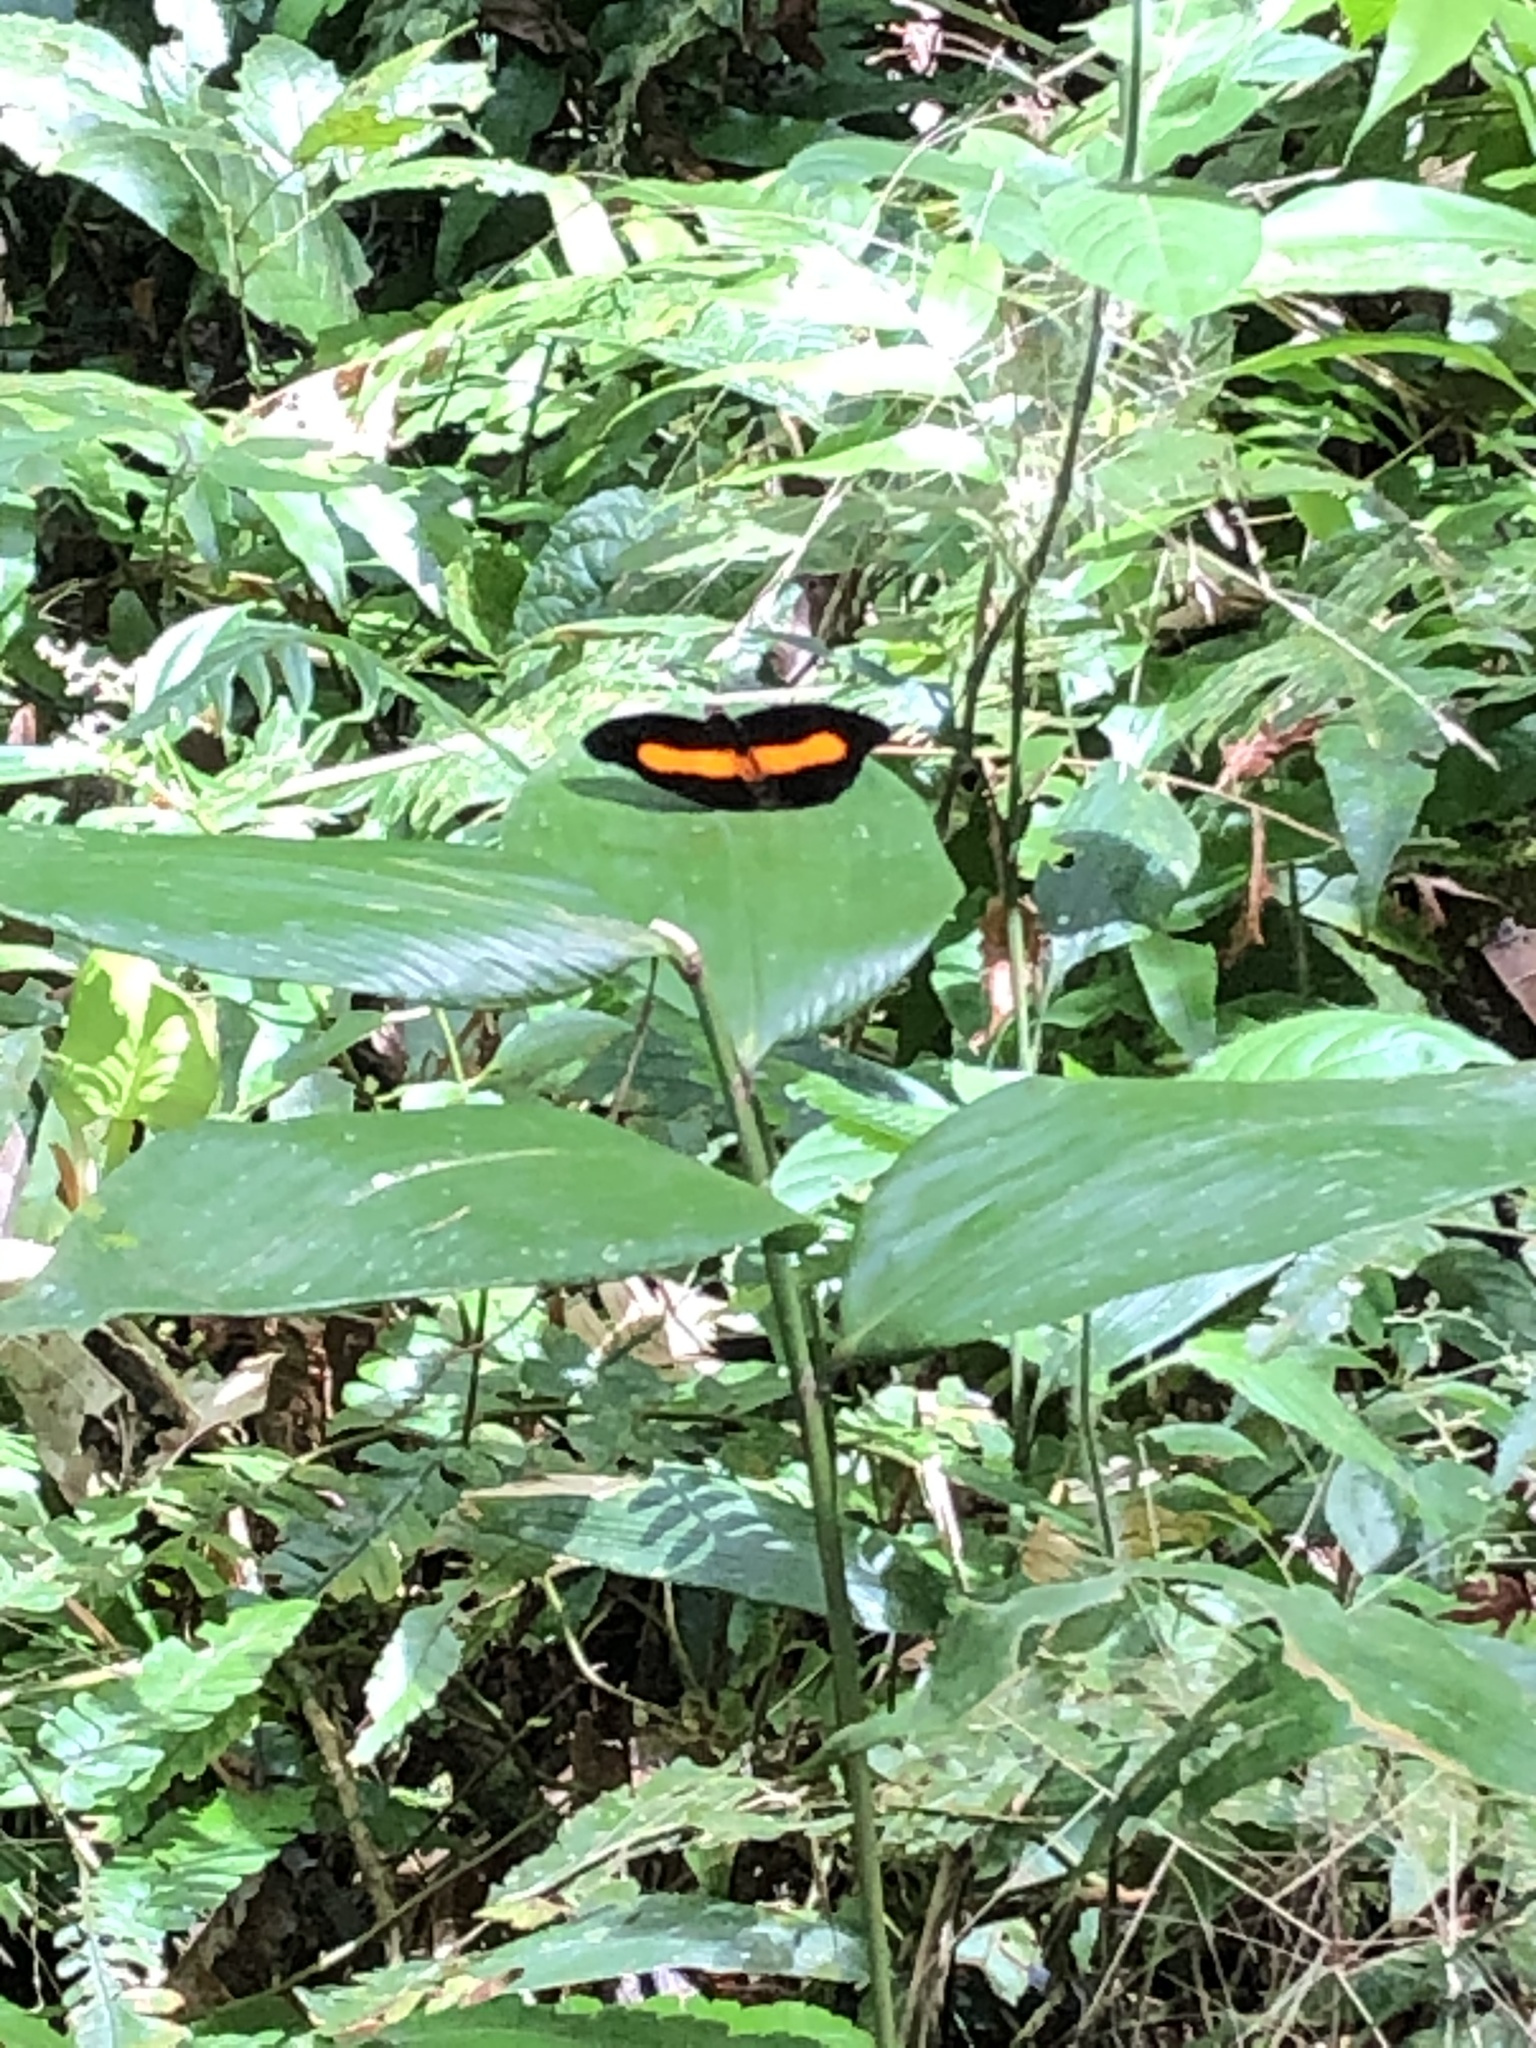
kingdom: Animalia
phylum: Arthropoda
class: Insecta
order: Lepidoptera
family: Nymphalidae
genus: Catonephele
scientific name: Catonephele acontius
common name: Unspotted firewing
